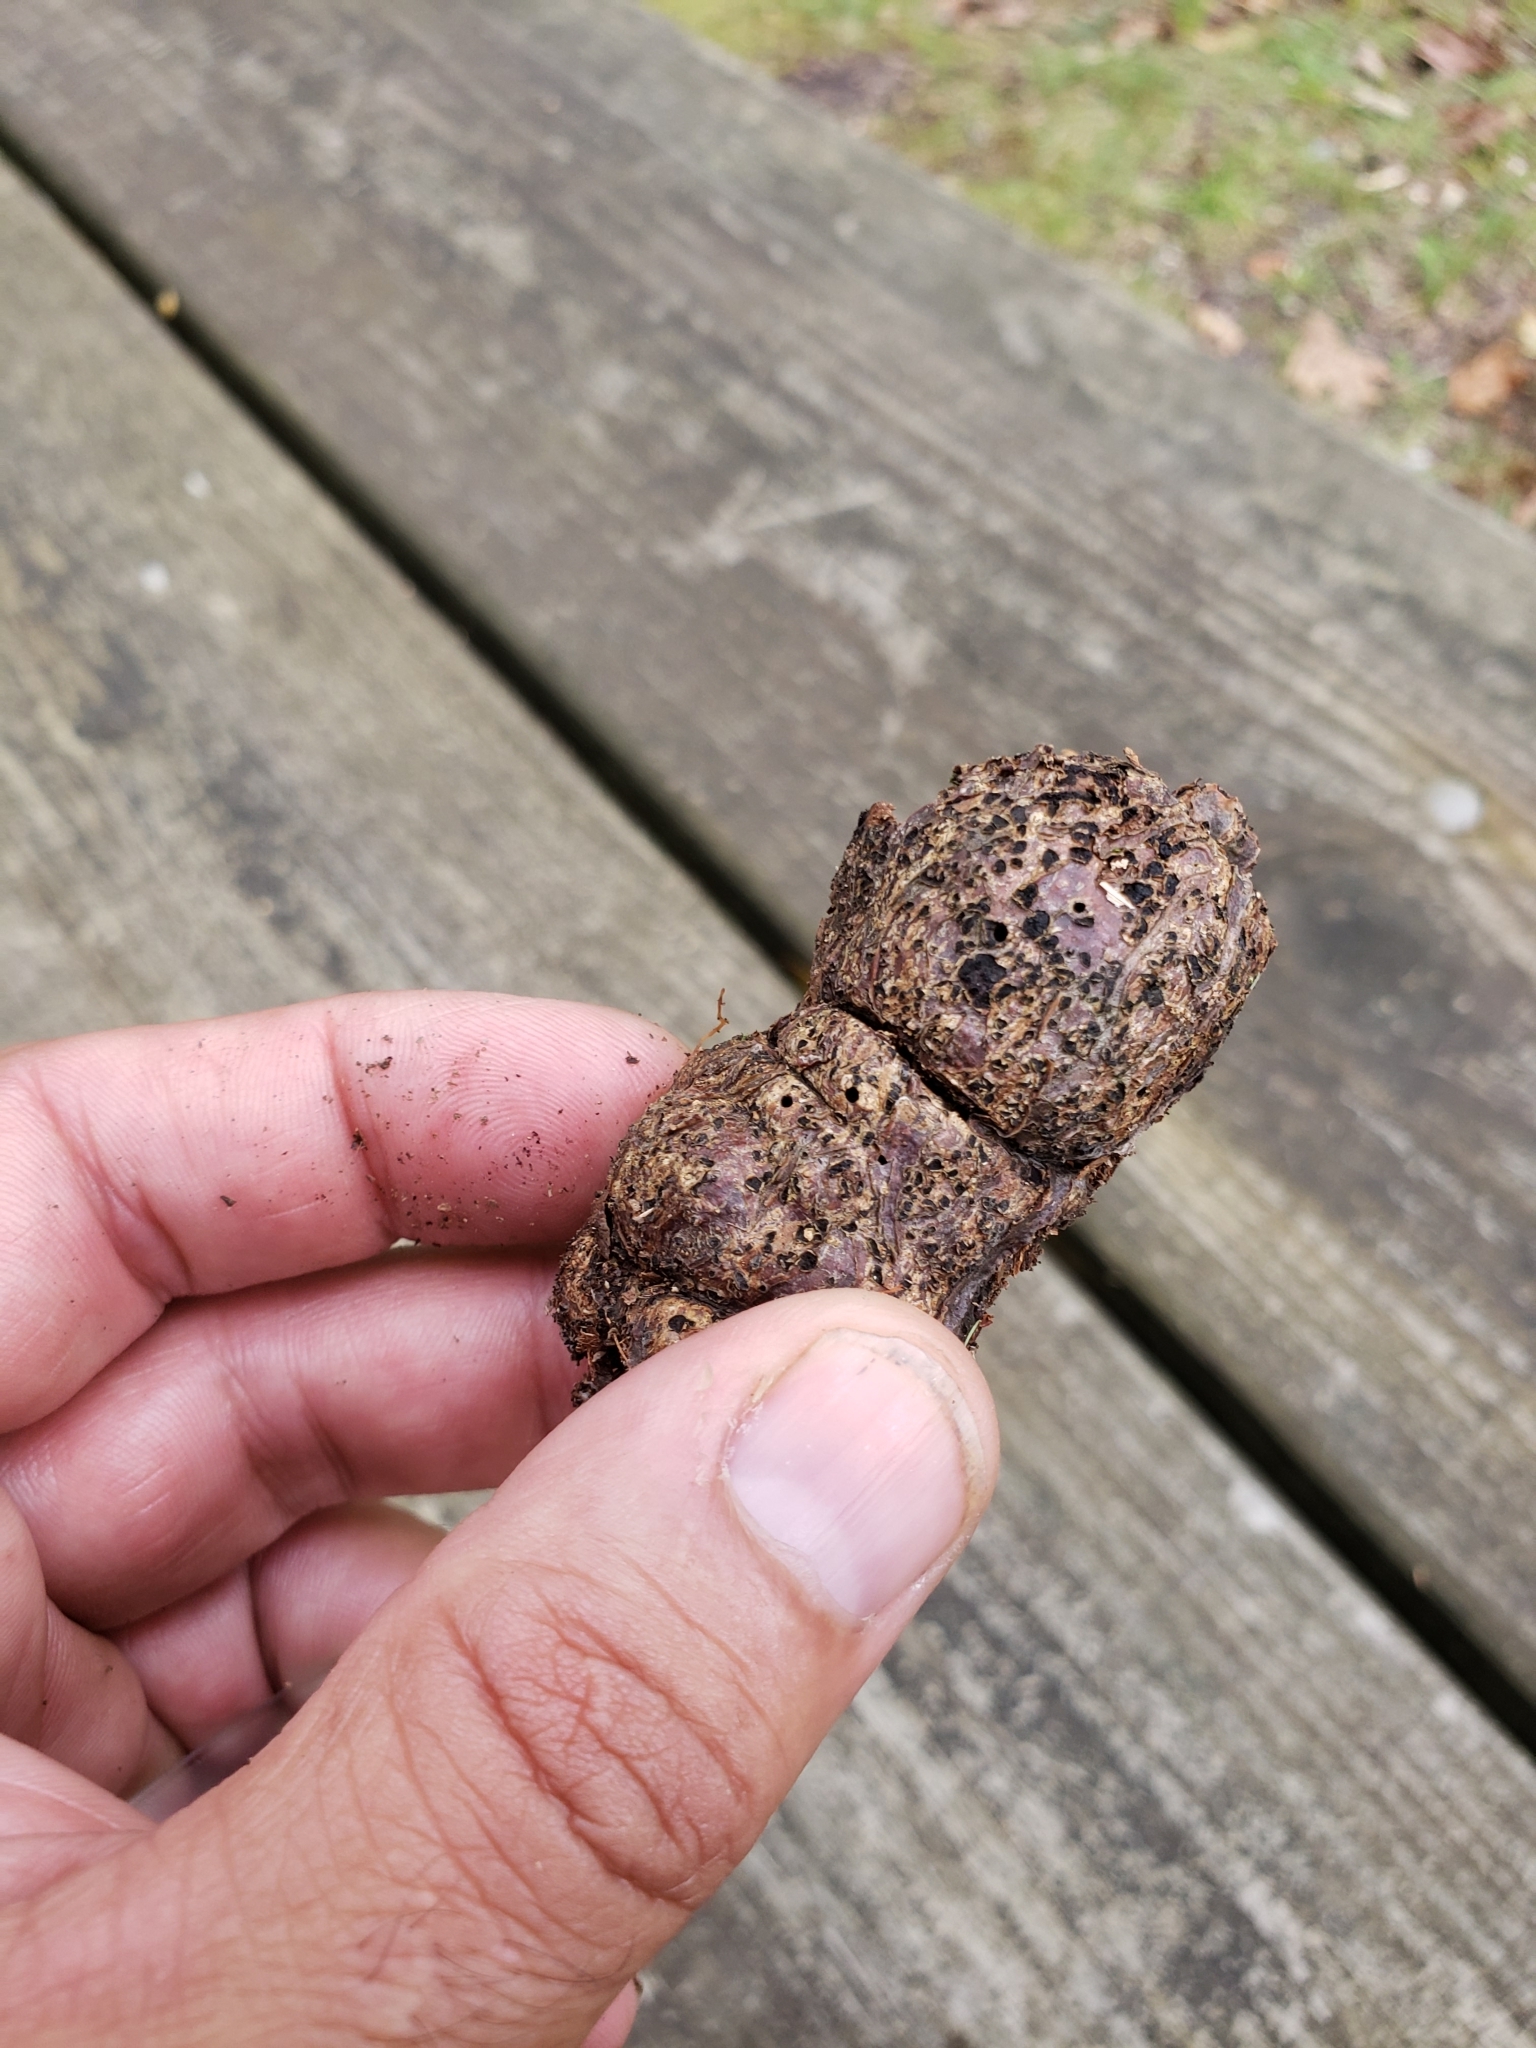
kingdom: Animalia
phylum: Arthropoda
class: Insecta
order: Hymenoptera
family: Cynipidae
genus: Callirhytis
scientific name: Callirhytis
